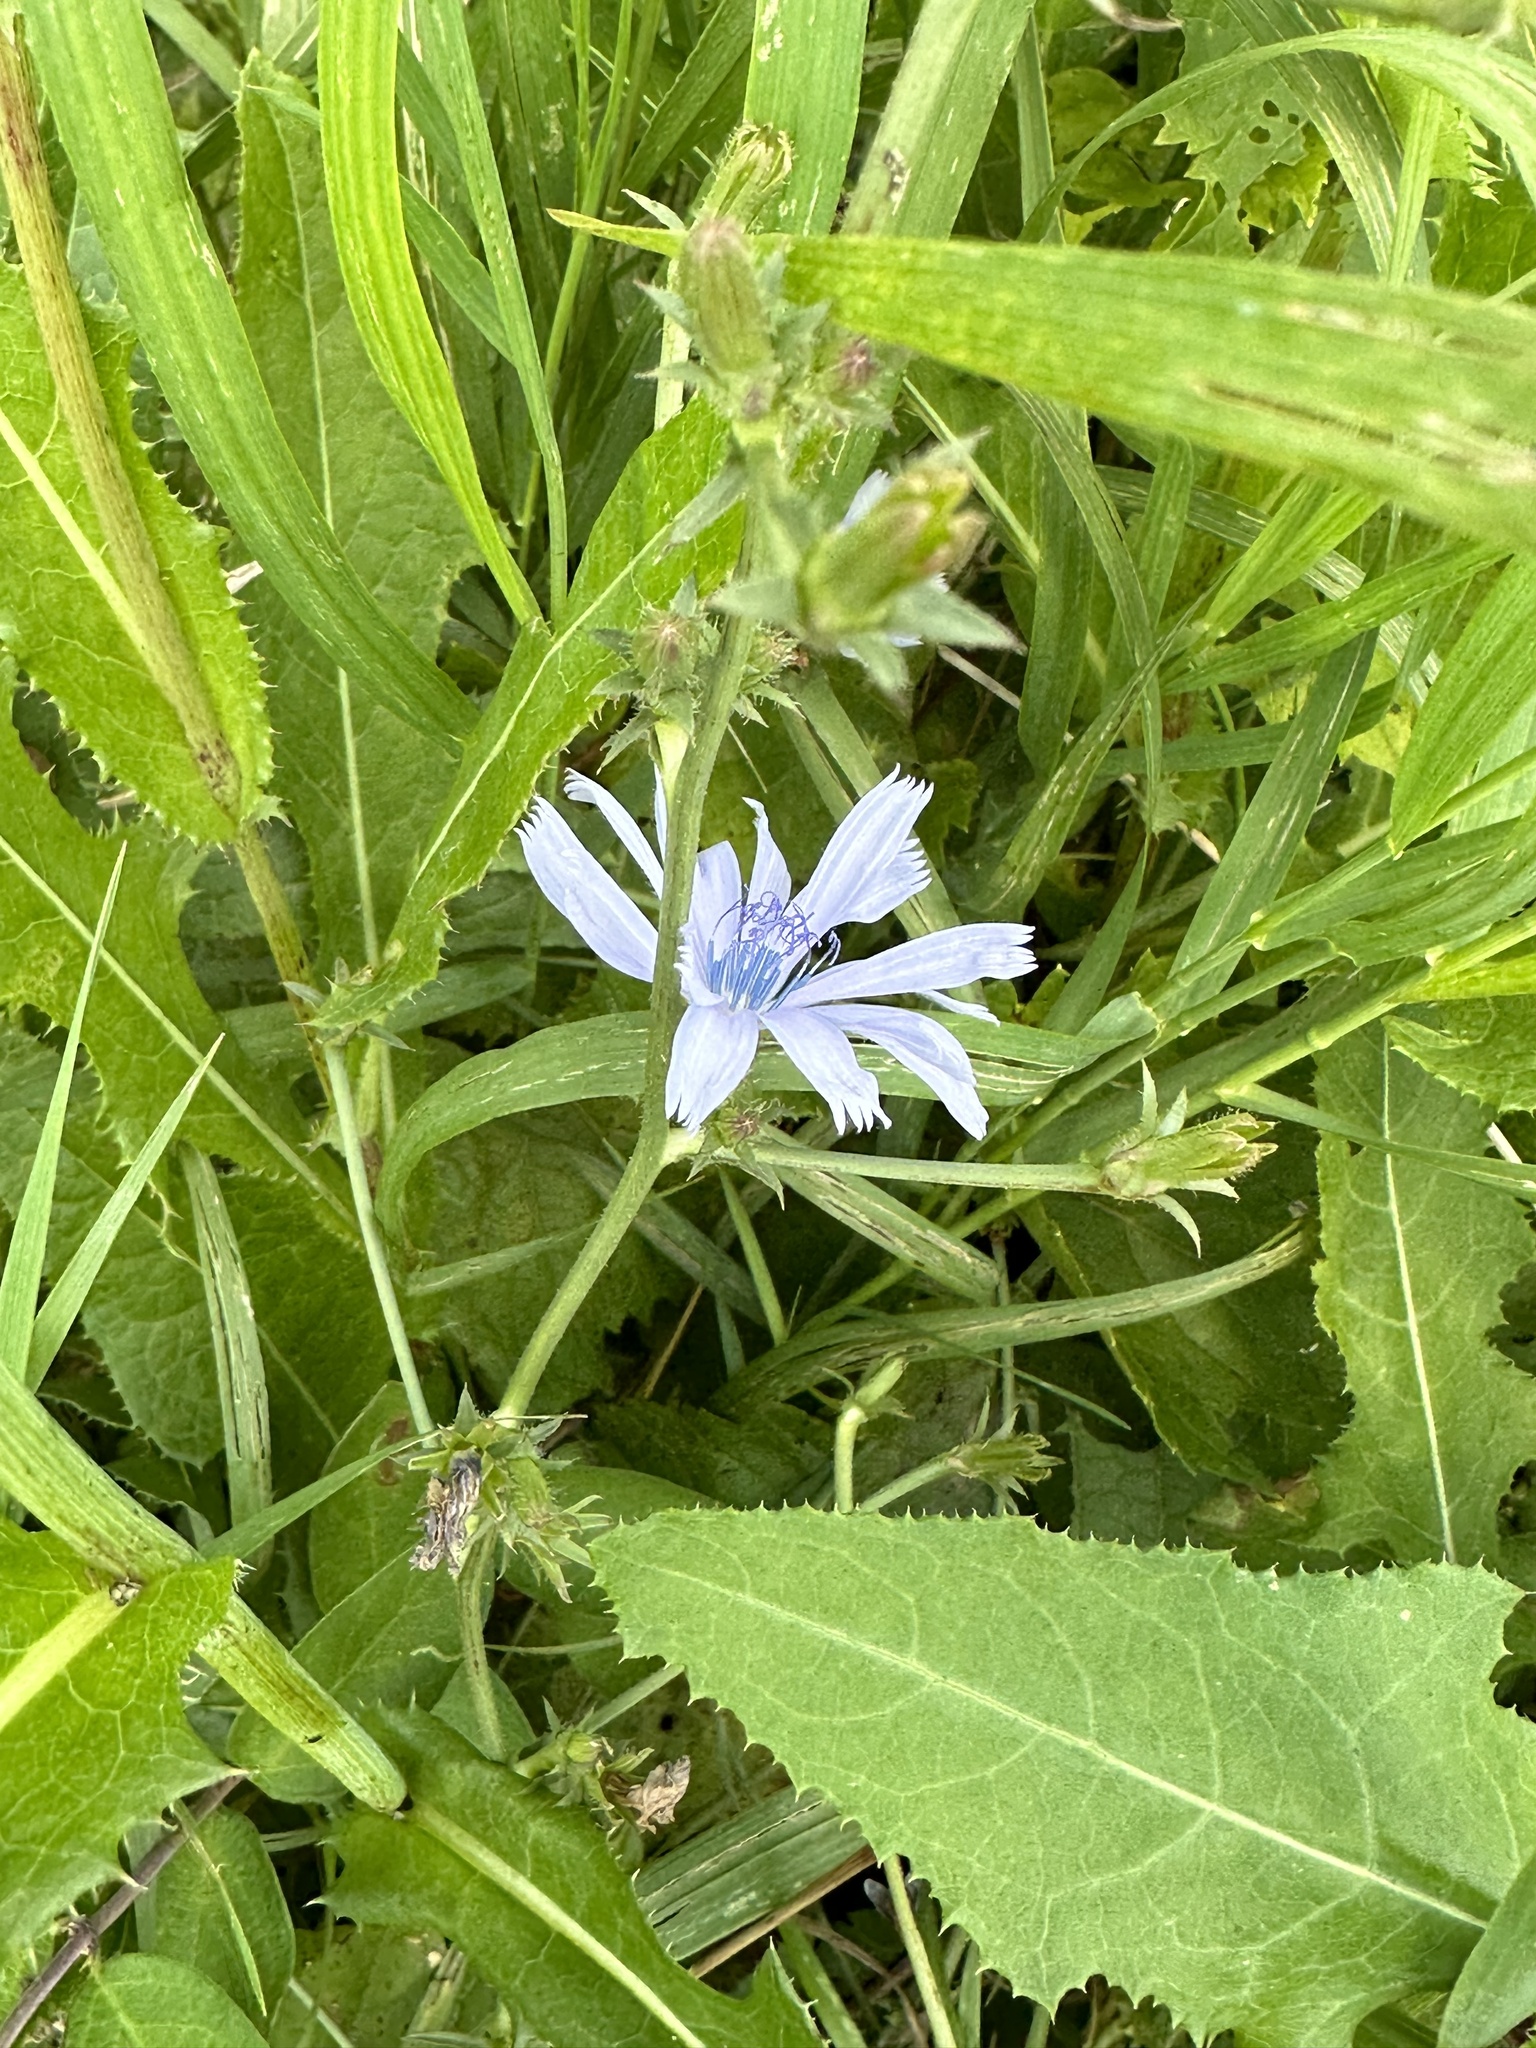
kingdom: Plantae
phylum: Tracheophyta
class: Magnoliopsida
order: Asterales
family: Asteraceae
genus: Cichorium
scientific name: Cichorium intybus
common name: Chicory
